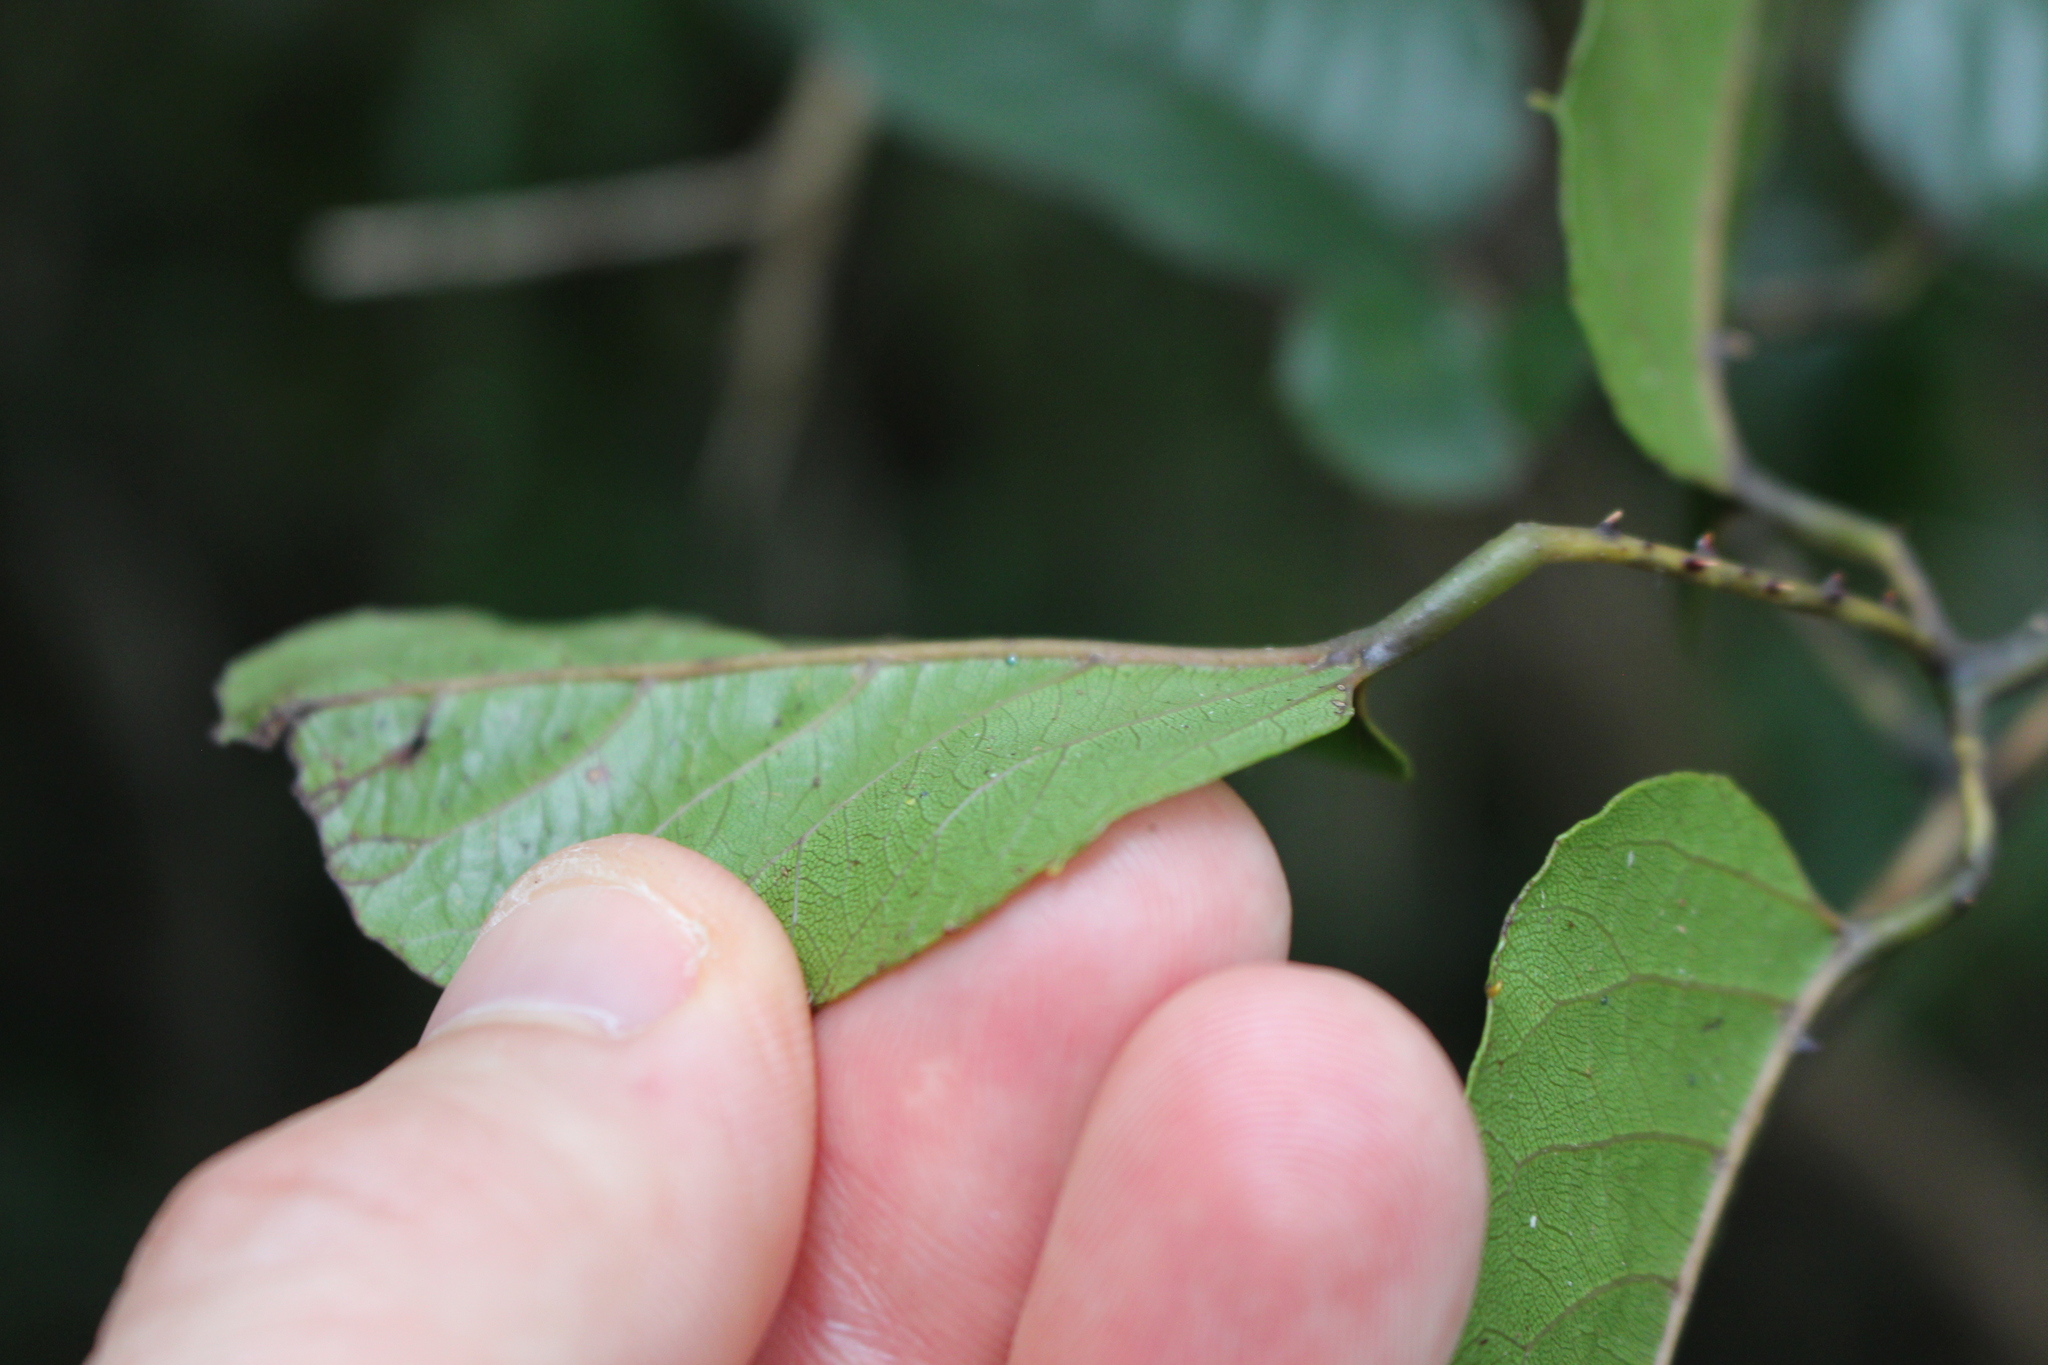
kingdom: Plantae
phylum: Tracheophyta
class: Magnoliopsida
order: Rosales
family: Rosaceae
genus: Rubus
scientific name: Rubus cissoides
